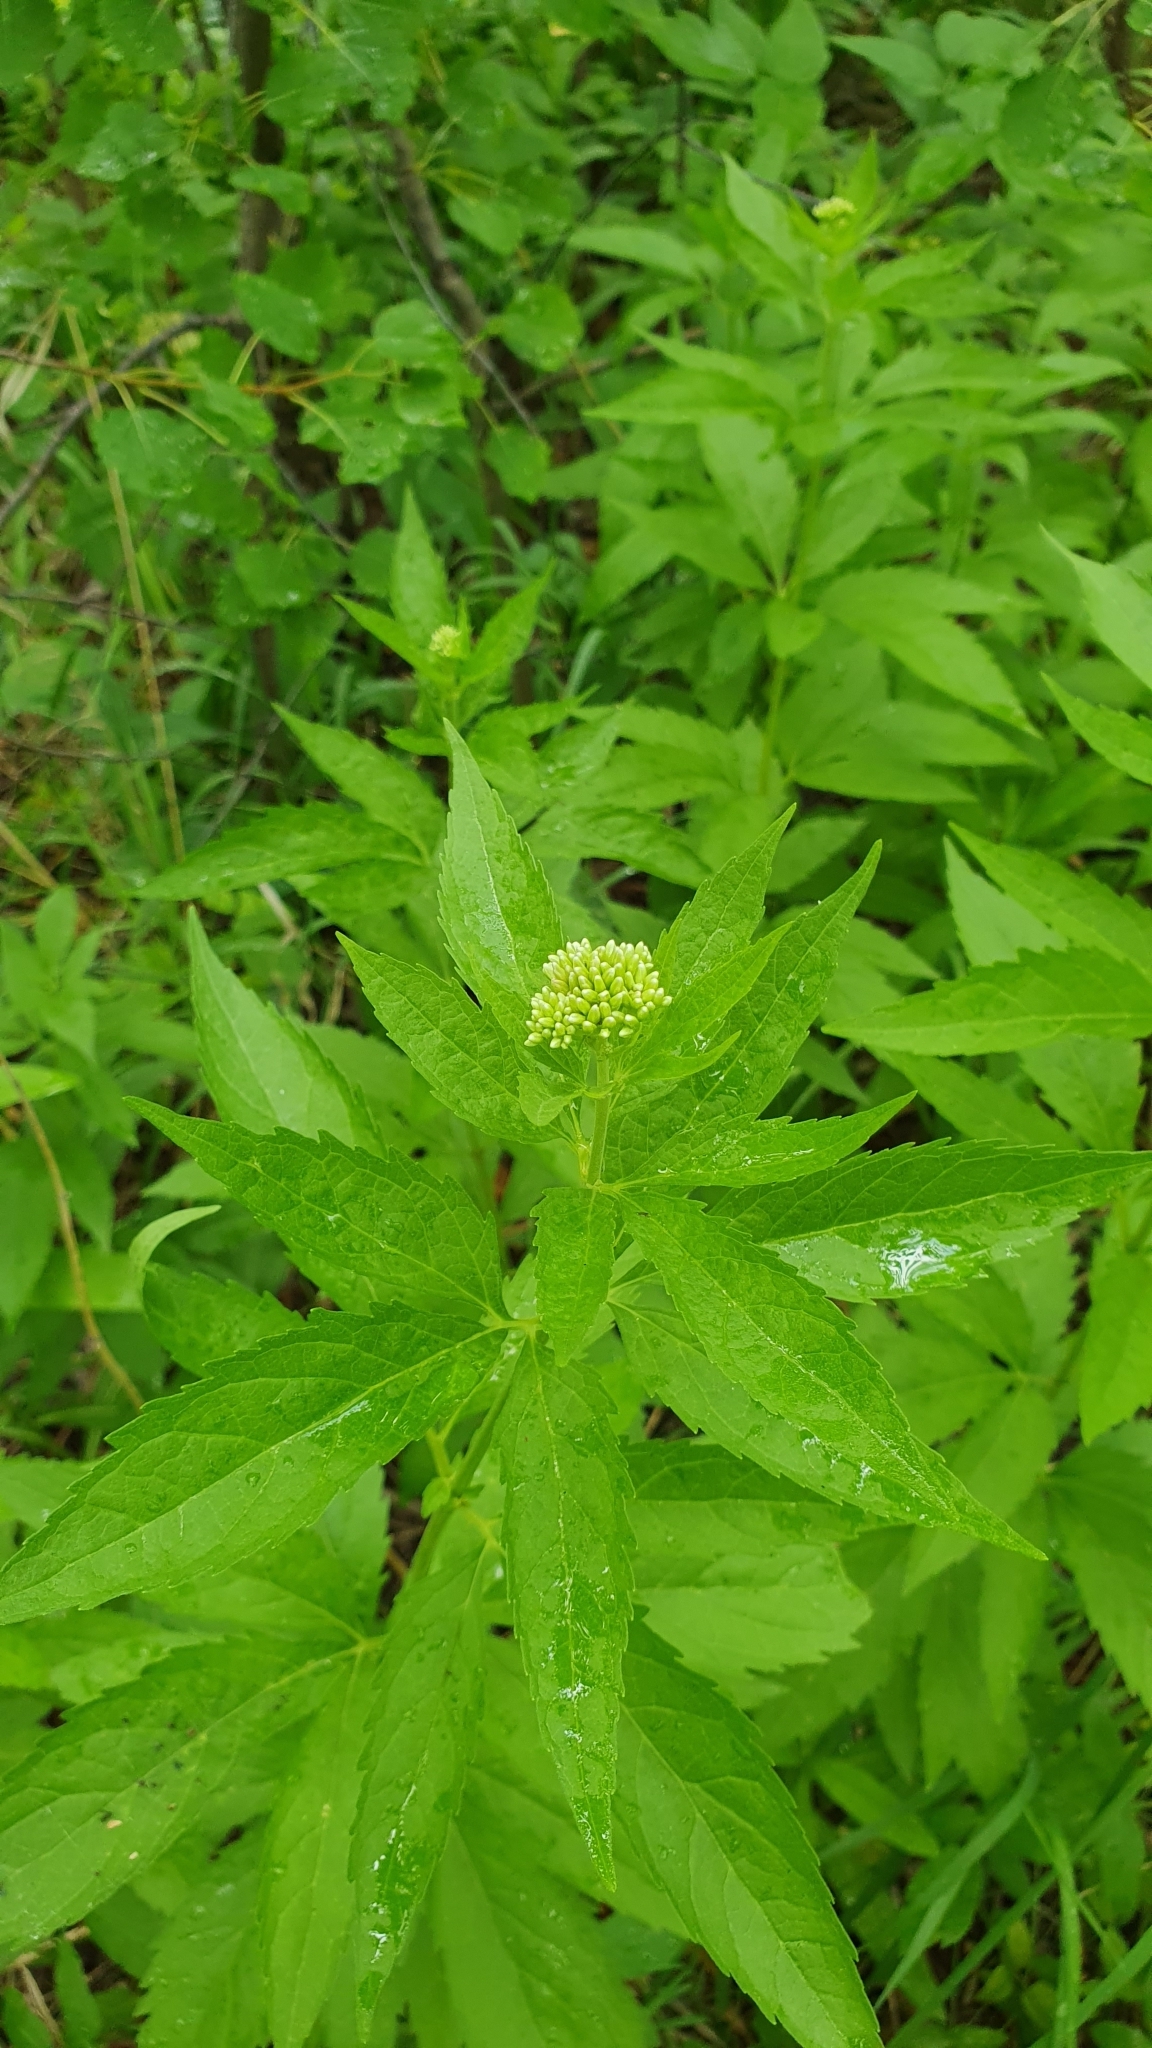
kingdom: Plantae
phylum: Tracheophyta
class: Magnoliopsida
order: Asterales
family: Asteraceae
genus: Eupatorium
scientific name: Eupatorium cannabinum
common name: Hemp-agrimony
